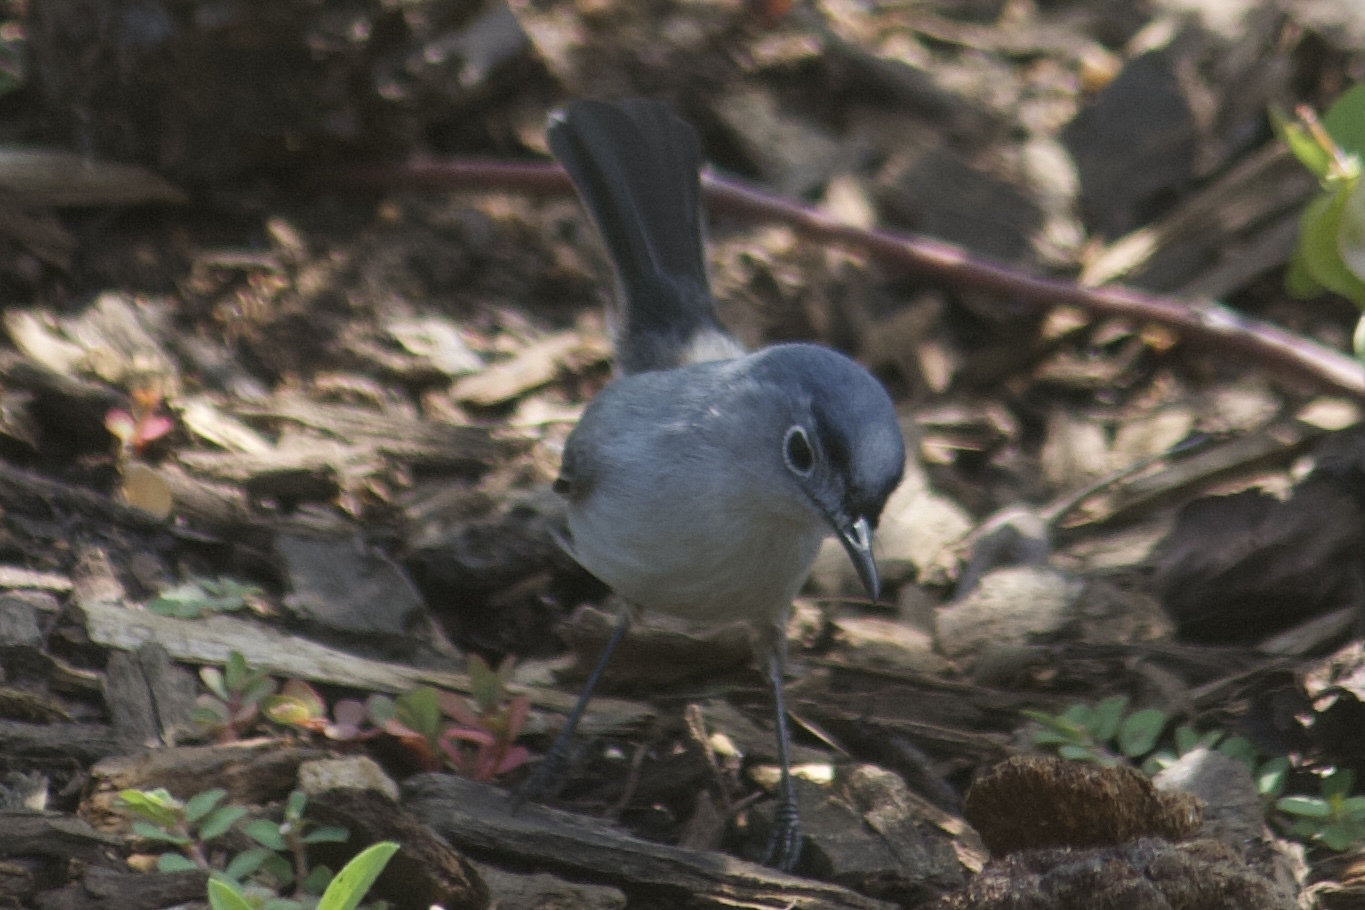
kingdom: Animalia
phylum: Chordata
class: Aves
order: Passeriformes
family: Polioptilidae
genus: Polioptila
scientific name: Polioptila caerulea
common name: Blue-gray gnatcatcher
